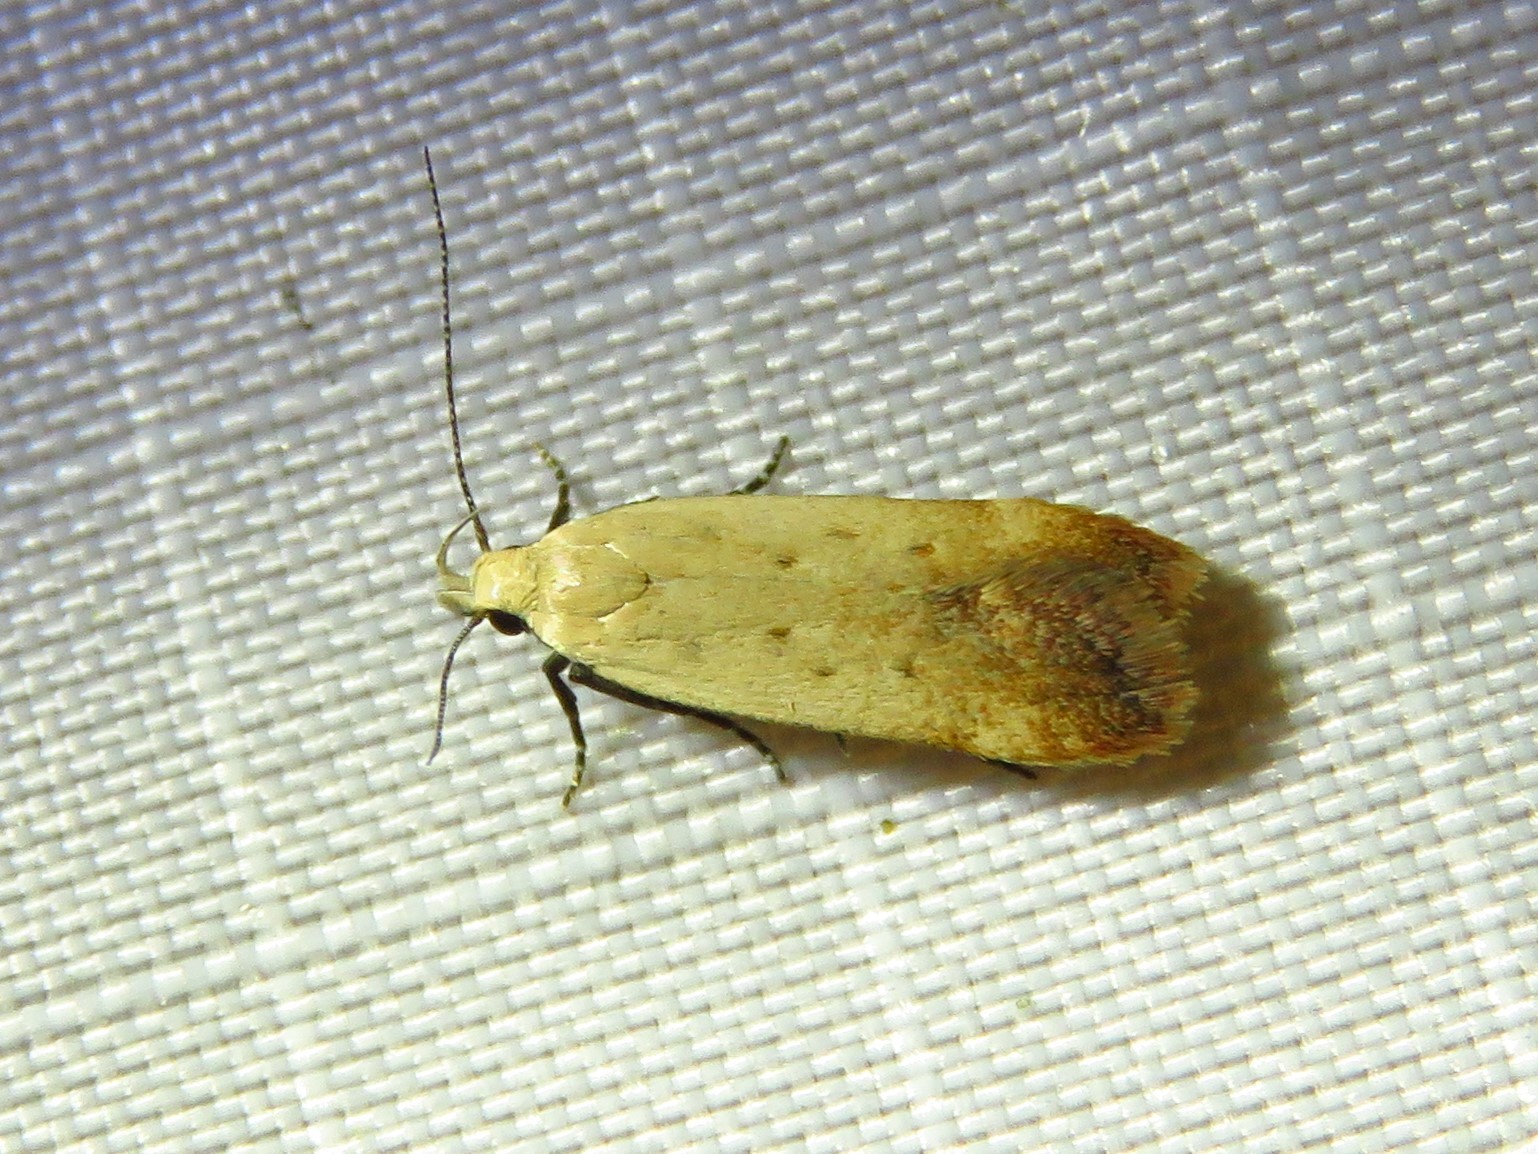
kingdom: Animalia
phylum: Arthropoda
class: Insecta
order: Lepidoptera
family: Gelechiidae
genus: Anacampsis
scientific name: Anacampsis fullonella
